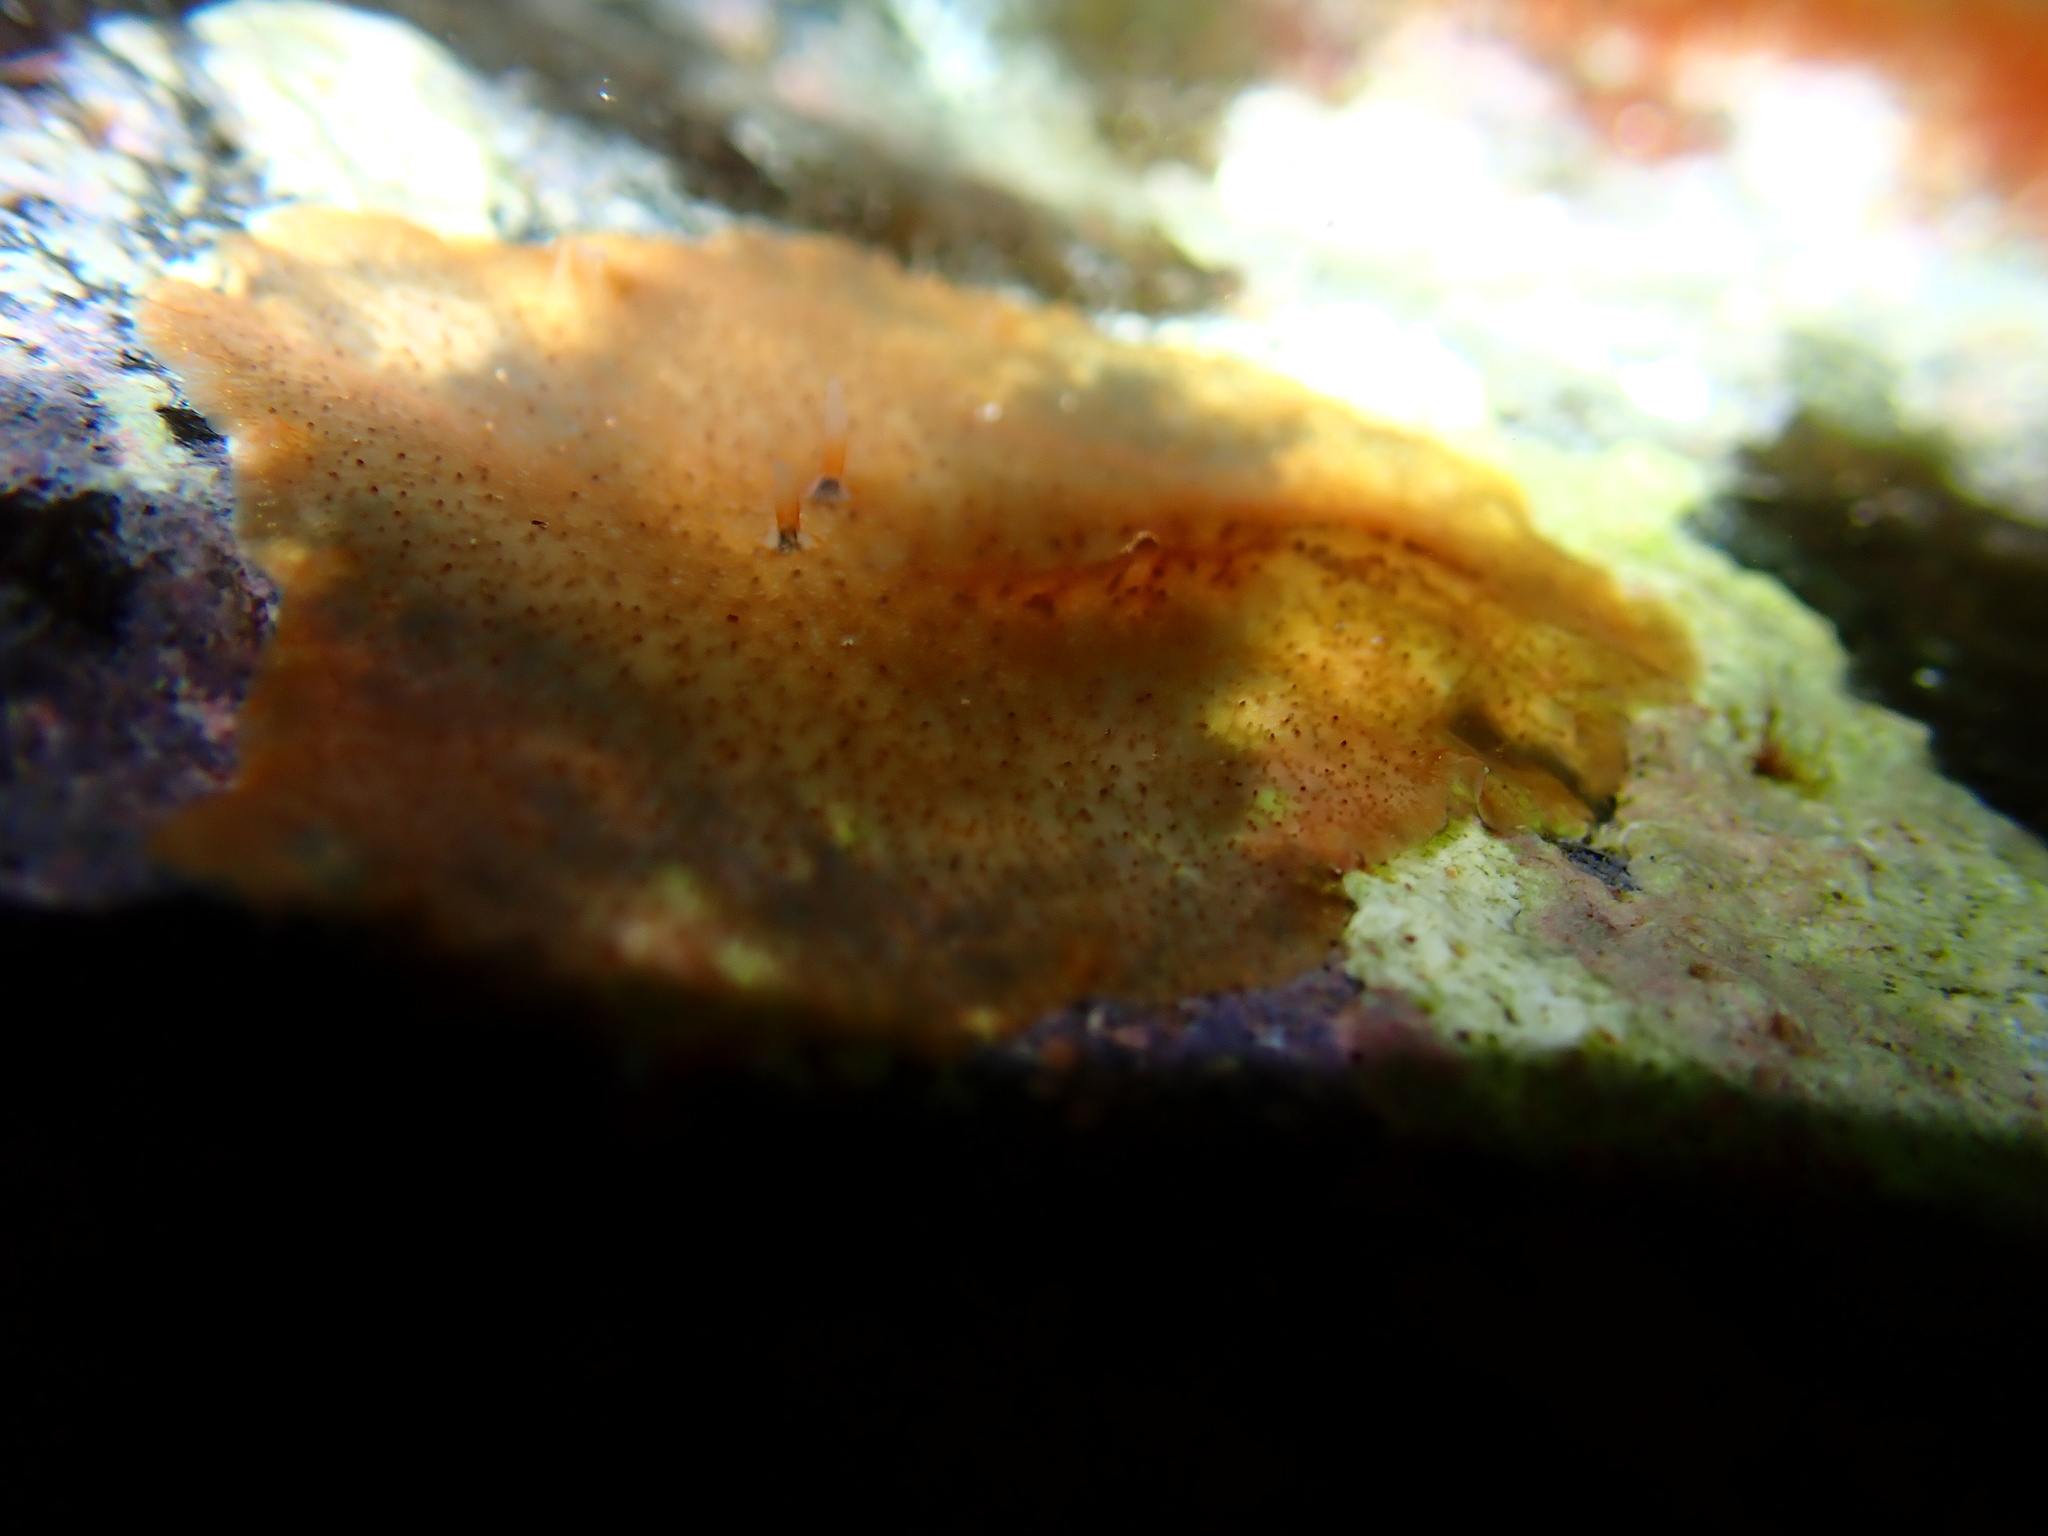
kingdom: Animalia
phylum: Platyhelminthes
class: Turbellaria
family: Planoceridae
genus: Planocera
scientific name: Planocera pellucida
